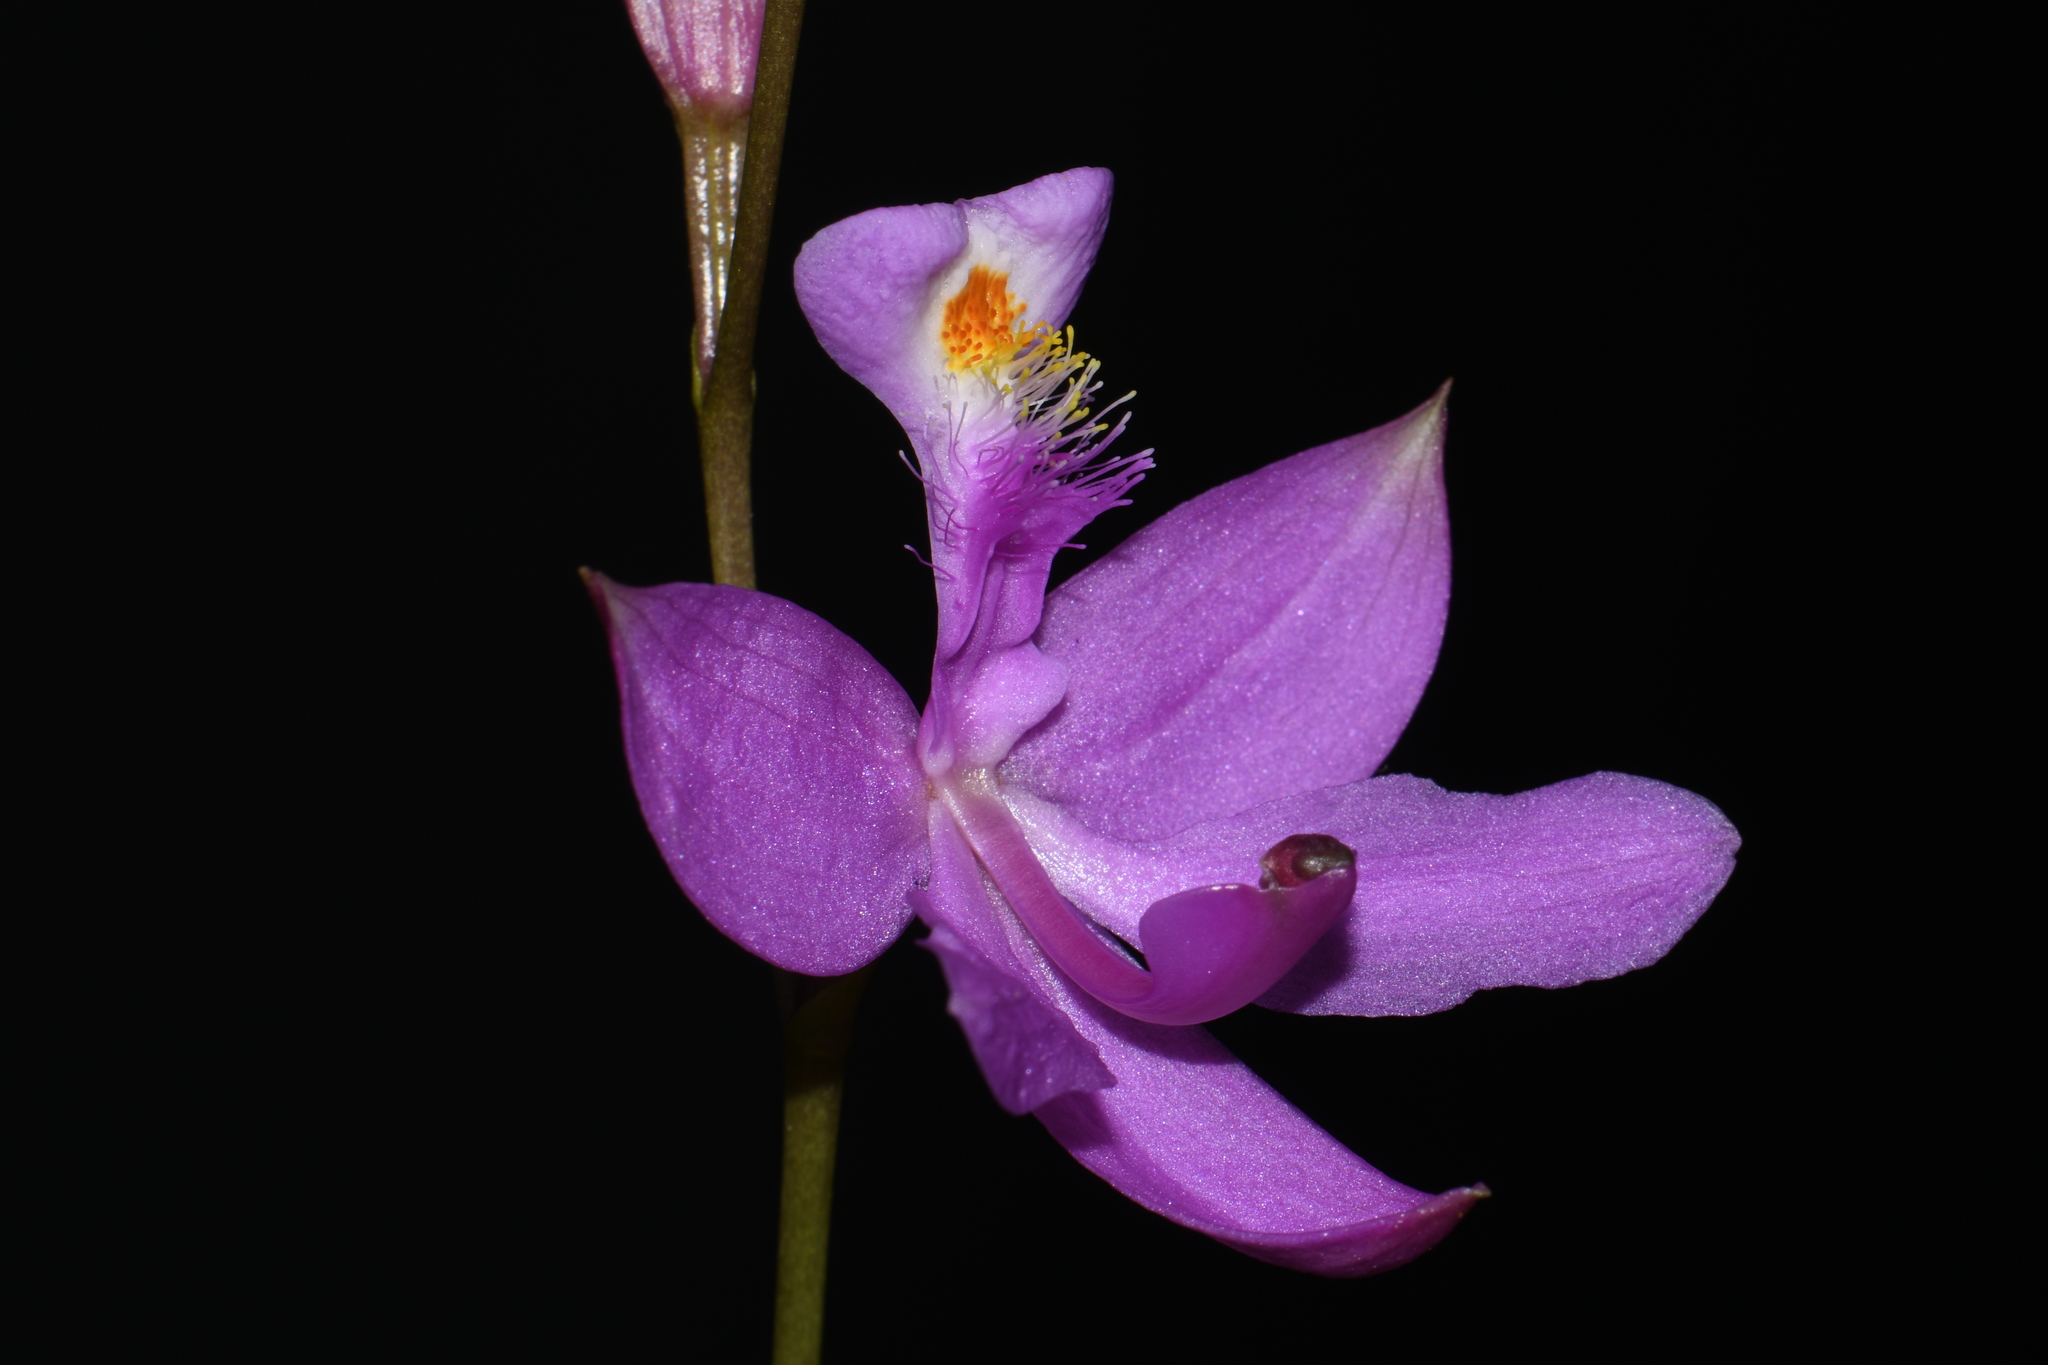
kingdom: Plantae
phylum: Tracheophyta
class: Liliopsida
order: Asparagales
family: Orchidaceae
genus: Calopogon
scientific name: Calopogon tuberosus
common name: Grass-pink
